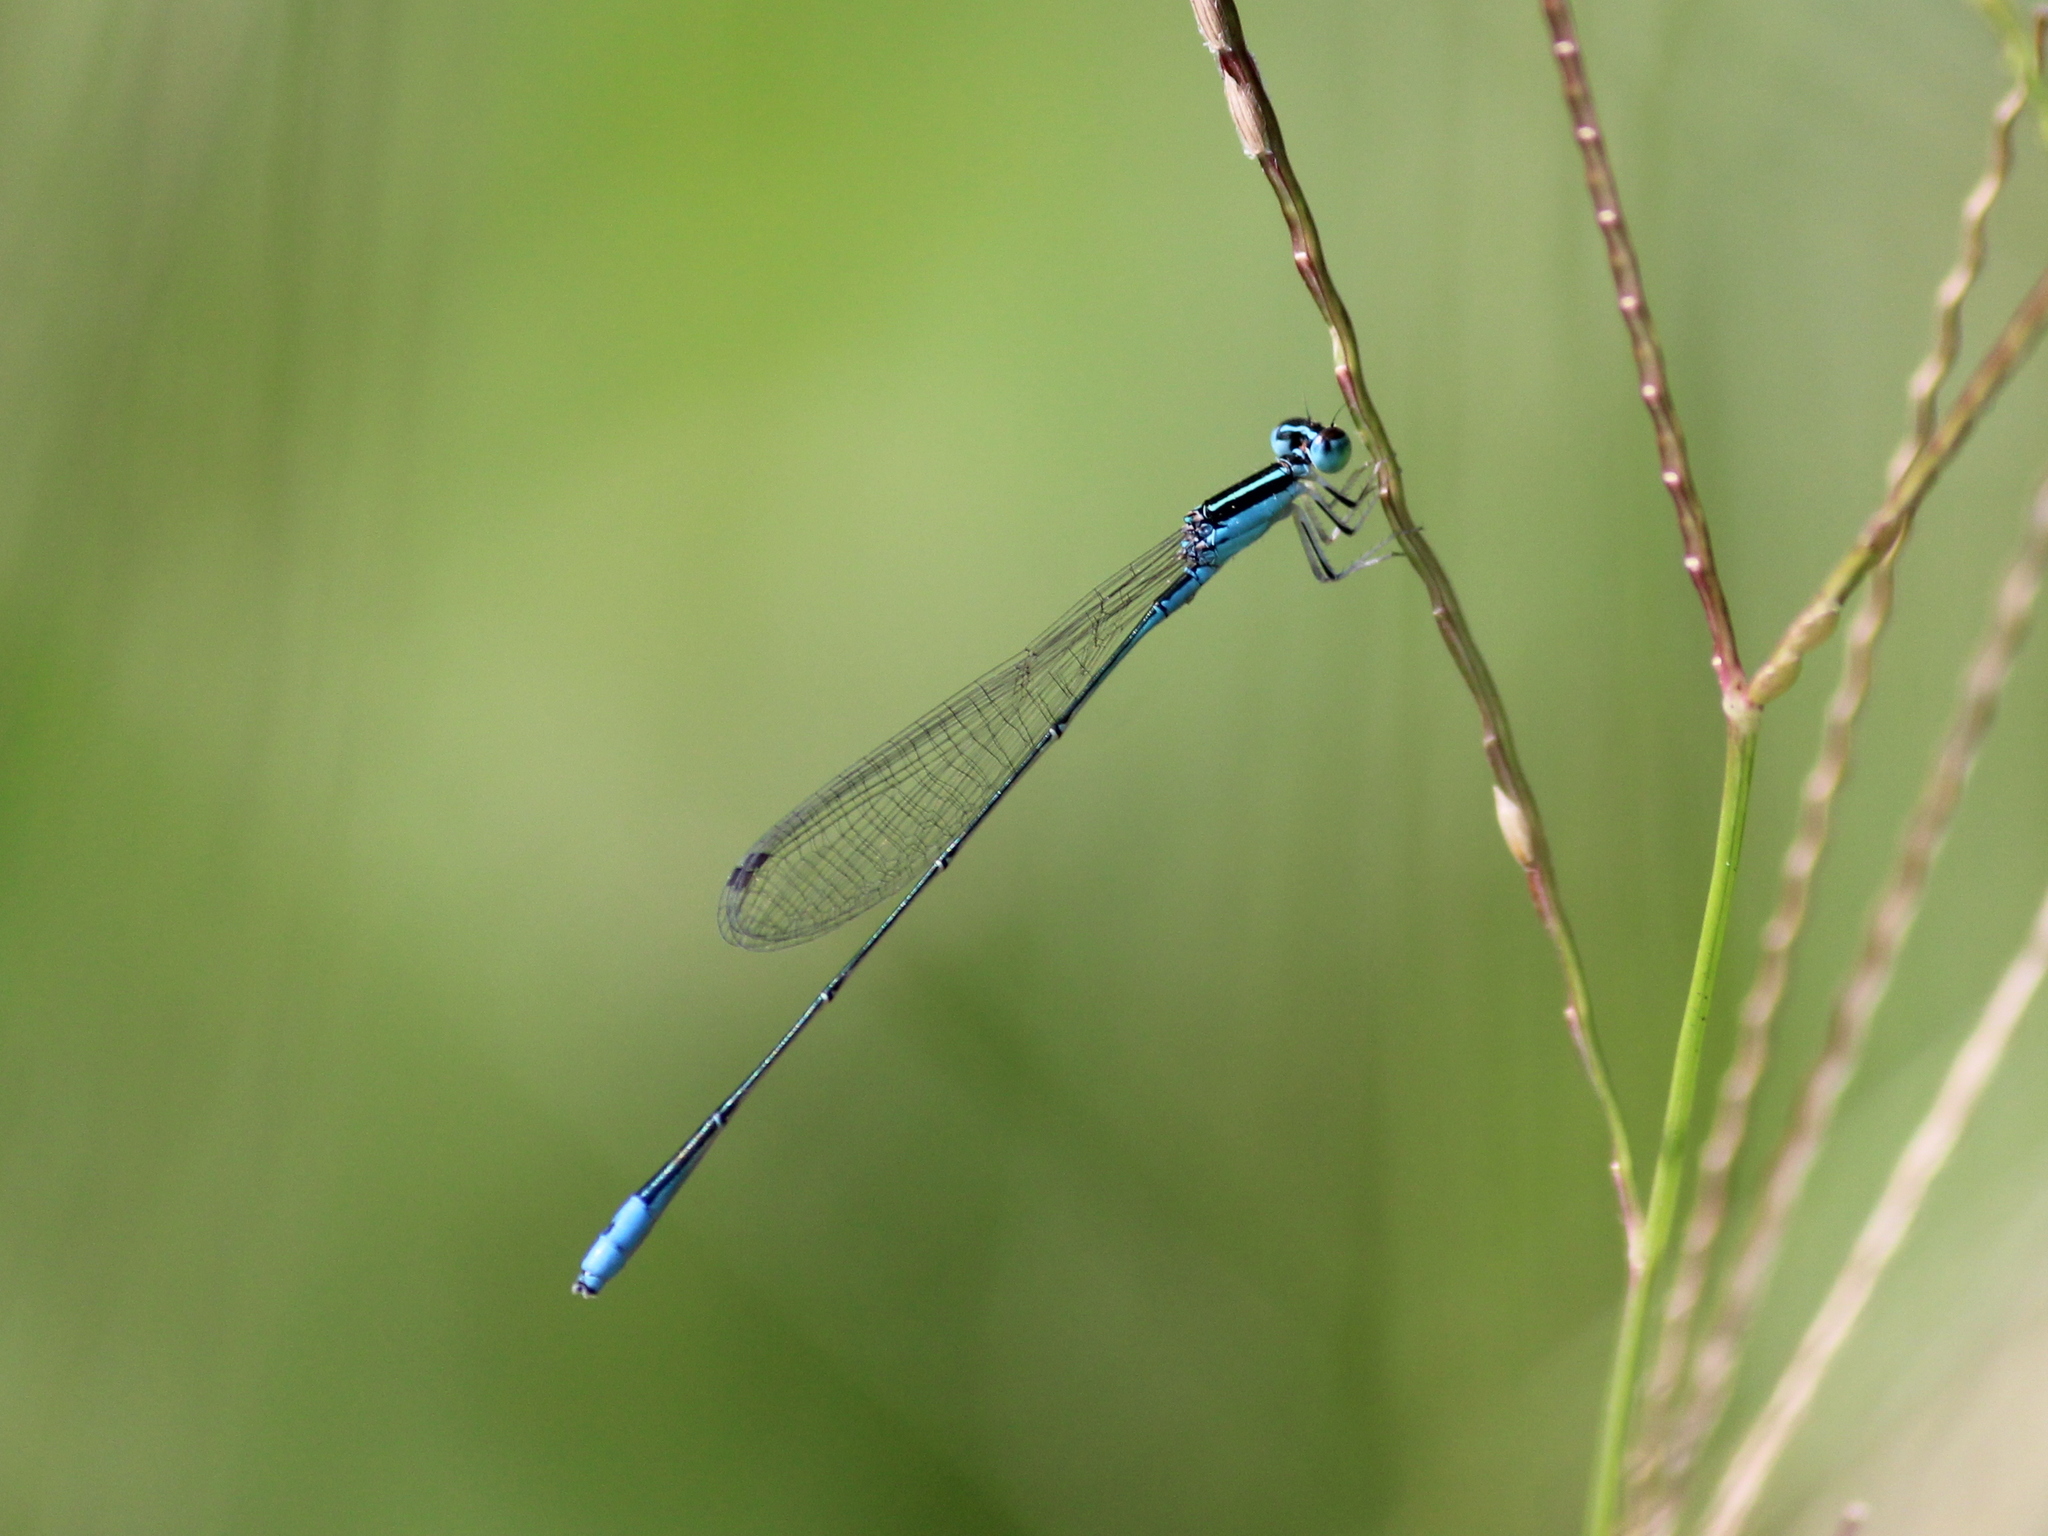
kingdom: Animalia
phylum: Arthropoda
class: Insecta
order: Odonata
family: Coenagrionidae
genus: Aciagrion
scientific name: Aciagrion occidentale
